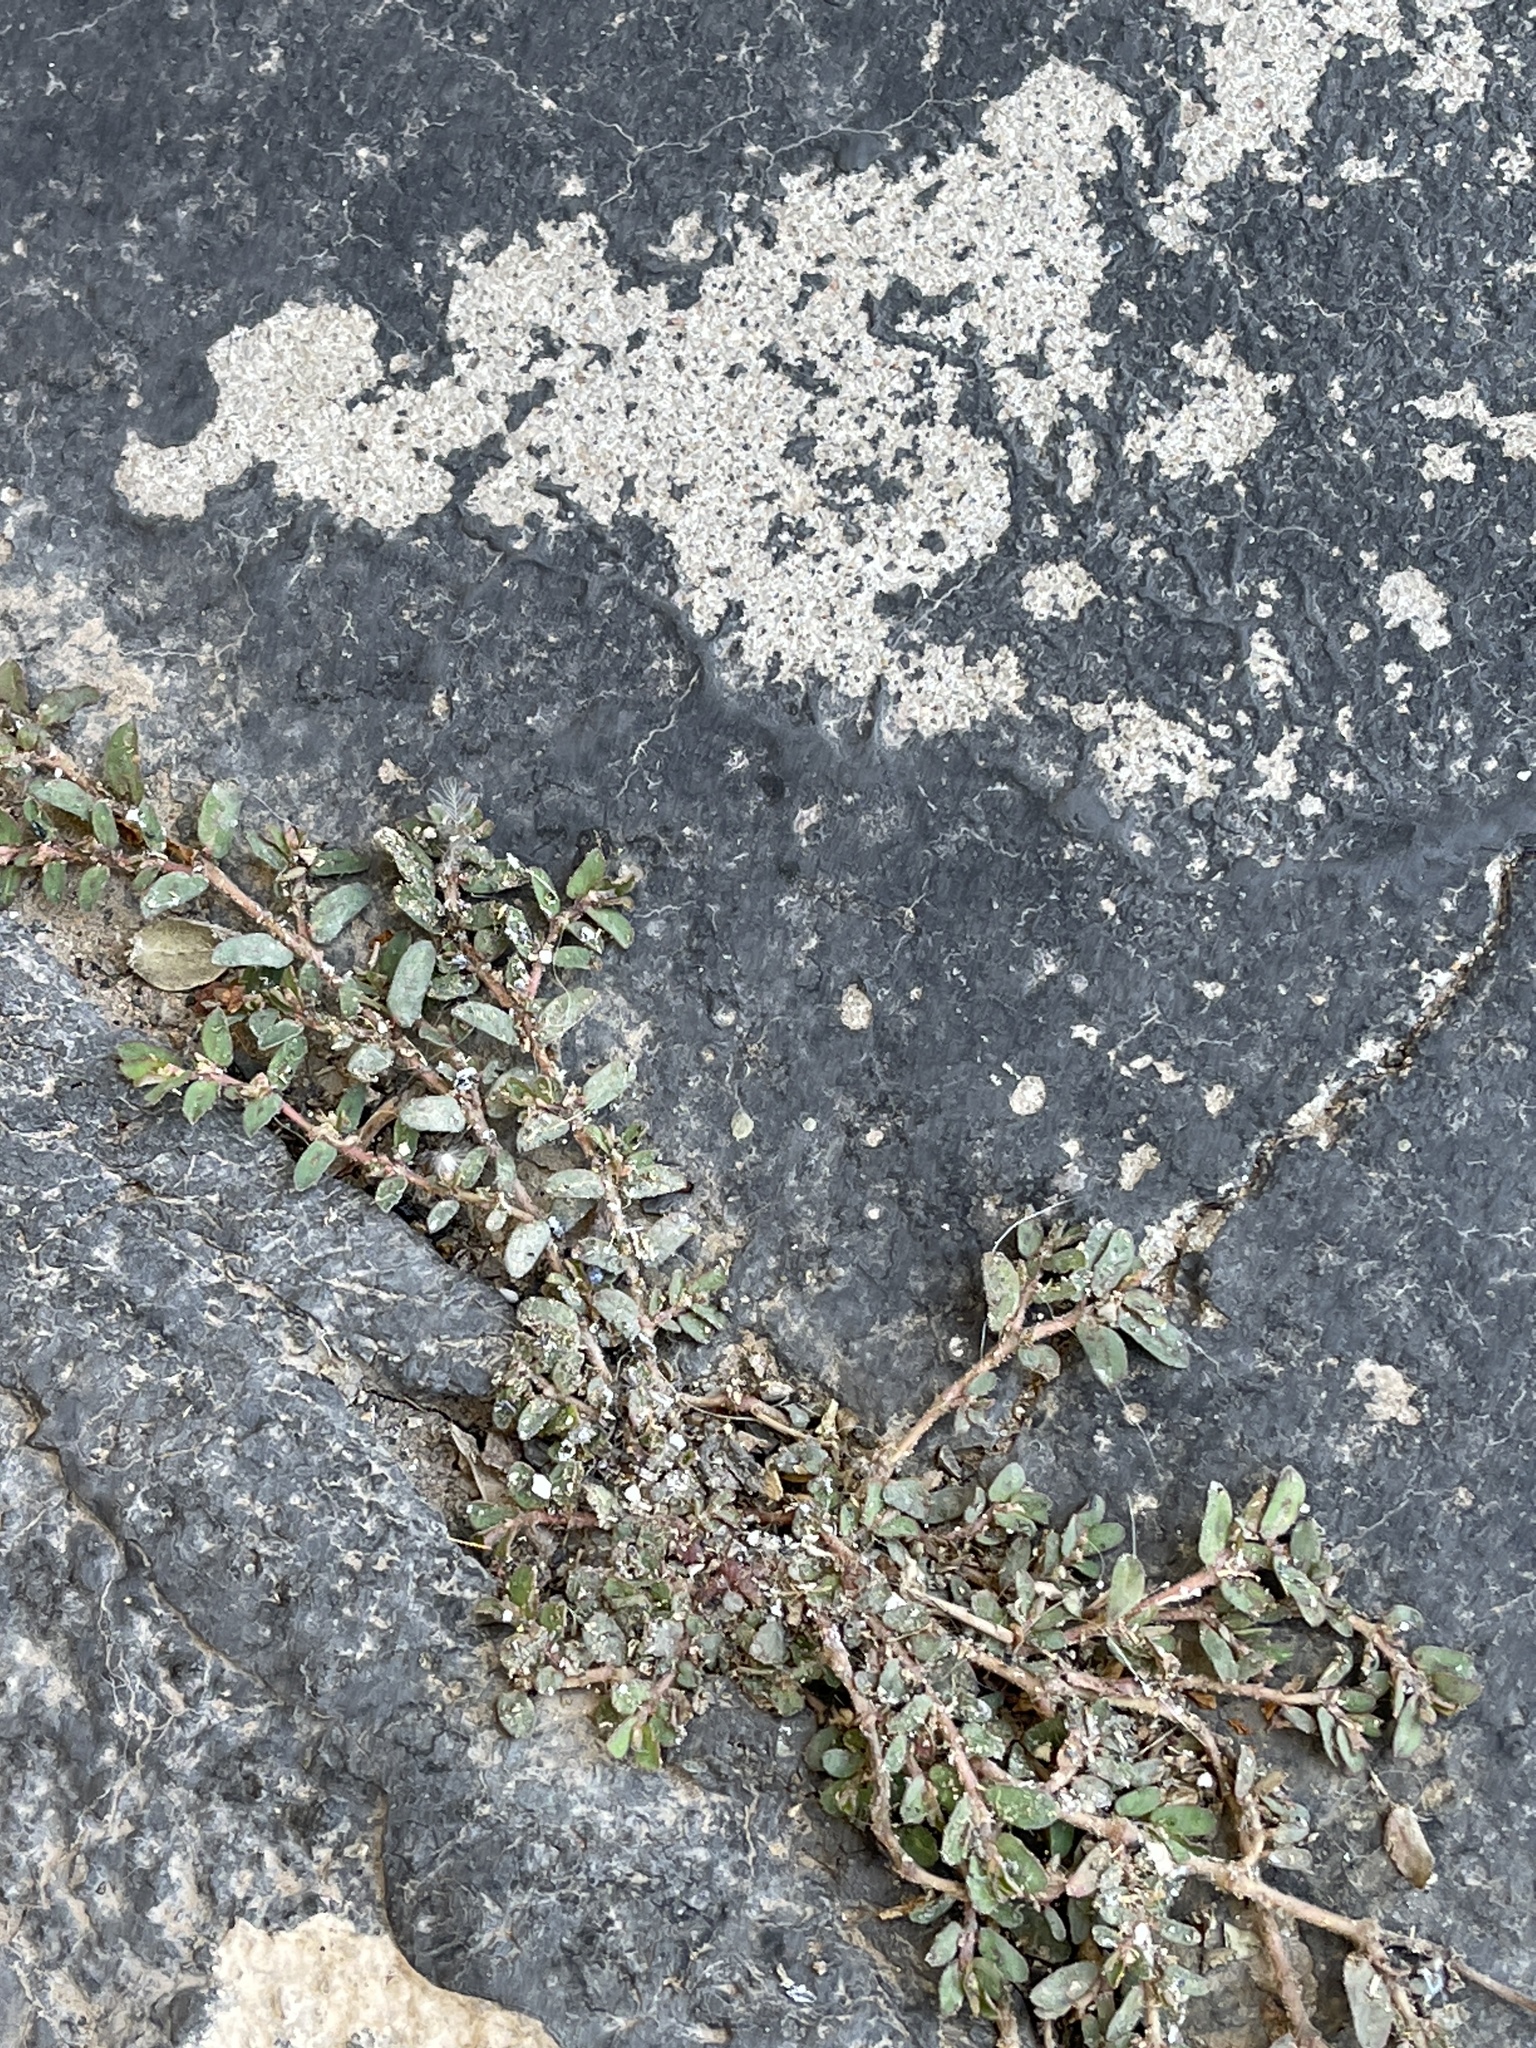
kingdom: Plantae
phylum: Tracheophyta
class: Magnoliopsida
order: Malpighiales
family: Euphorbiaceae
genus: Euphorbia
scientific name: Euphorbia maculata
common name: Spotted spurge
